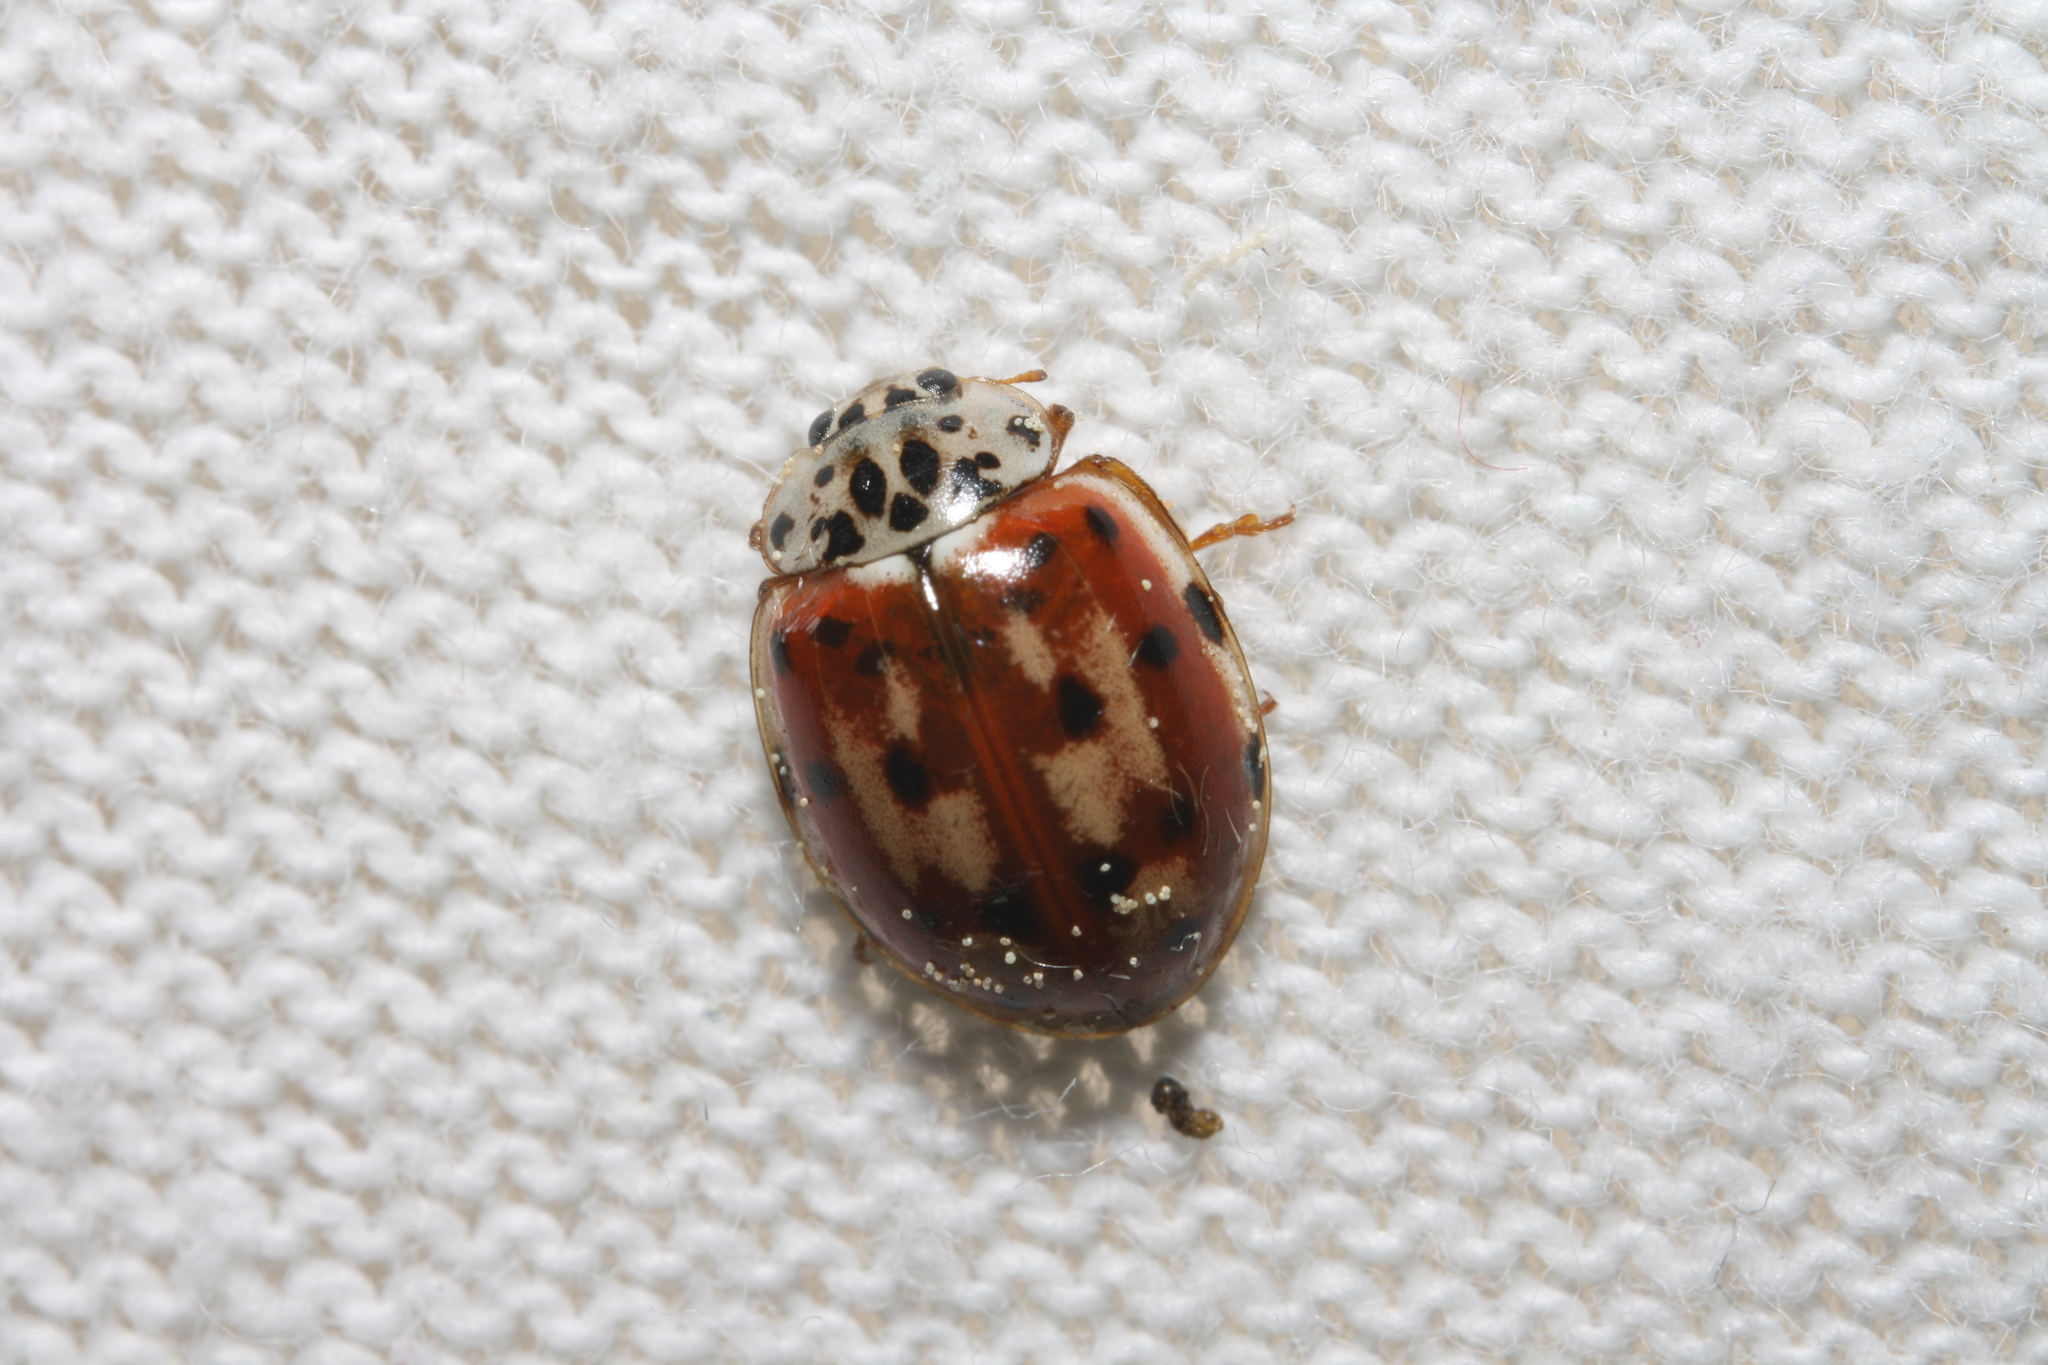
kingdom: Animalia
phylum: Arthropoda
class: Insecta
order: Coleoptera
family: Coccinellidae
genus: Harmonia
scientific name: Harmonia quadripunctata
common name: Cream-streaked ladybird
